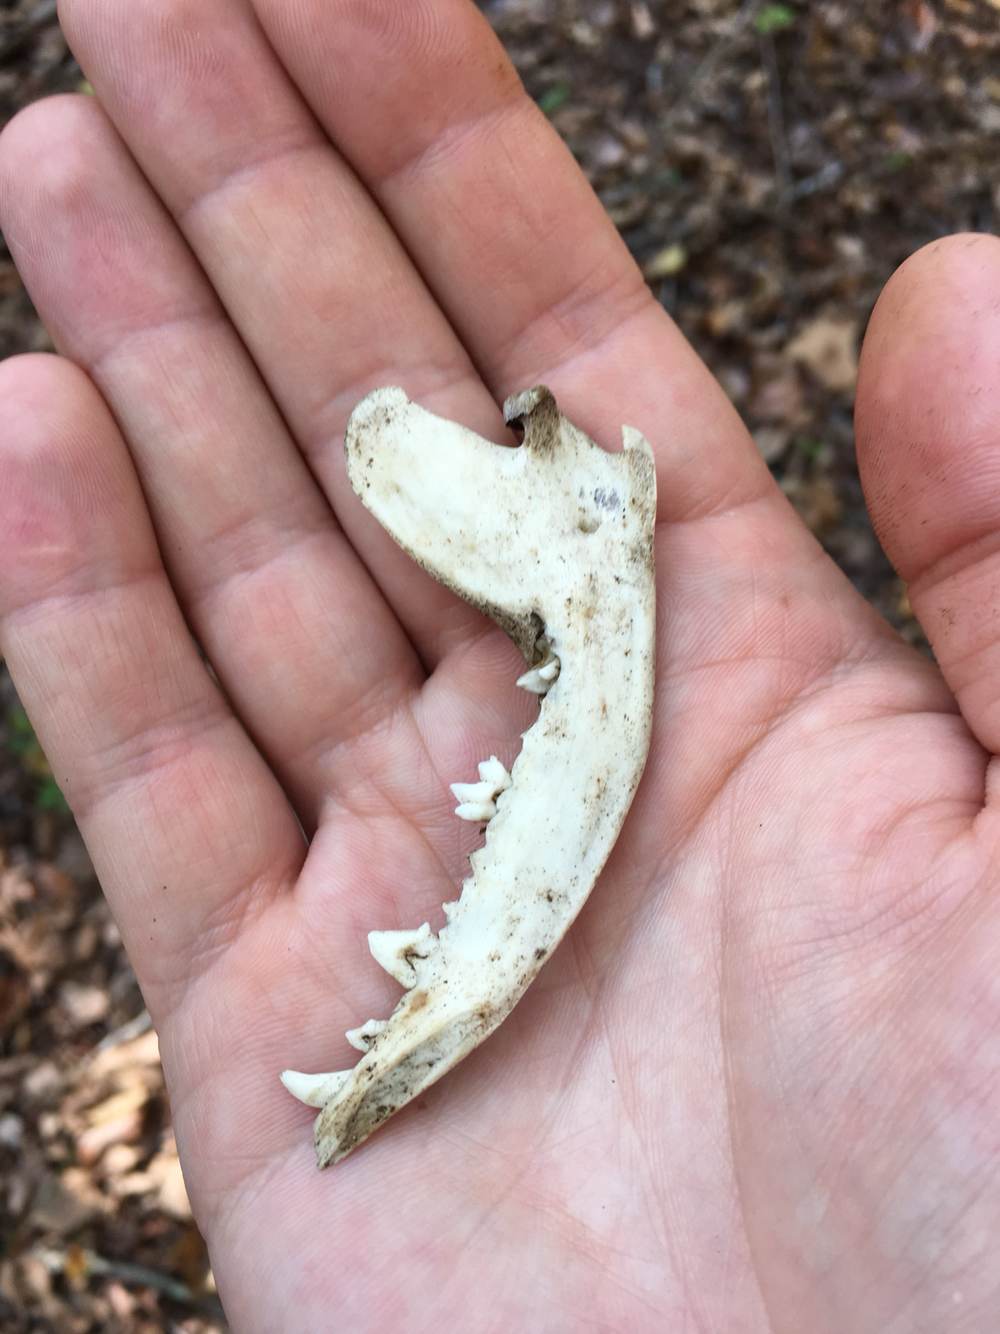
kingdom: Animalia
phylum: Chordata
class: Mammalia
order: Didelphimorphia
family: Didelphidae
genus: Didelphis
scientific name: Didelphis virginiana
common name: Virginia opossum
